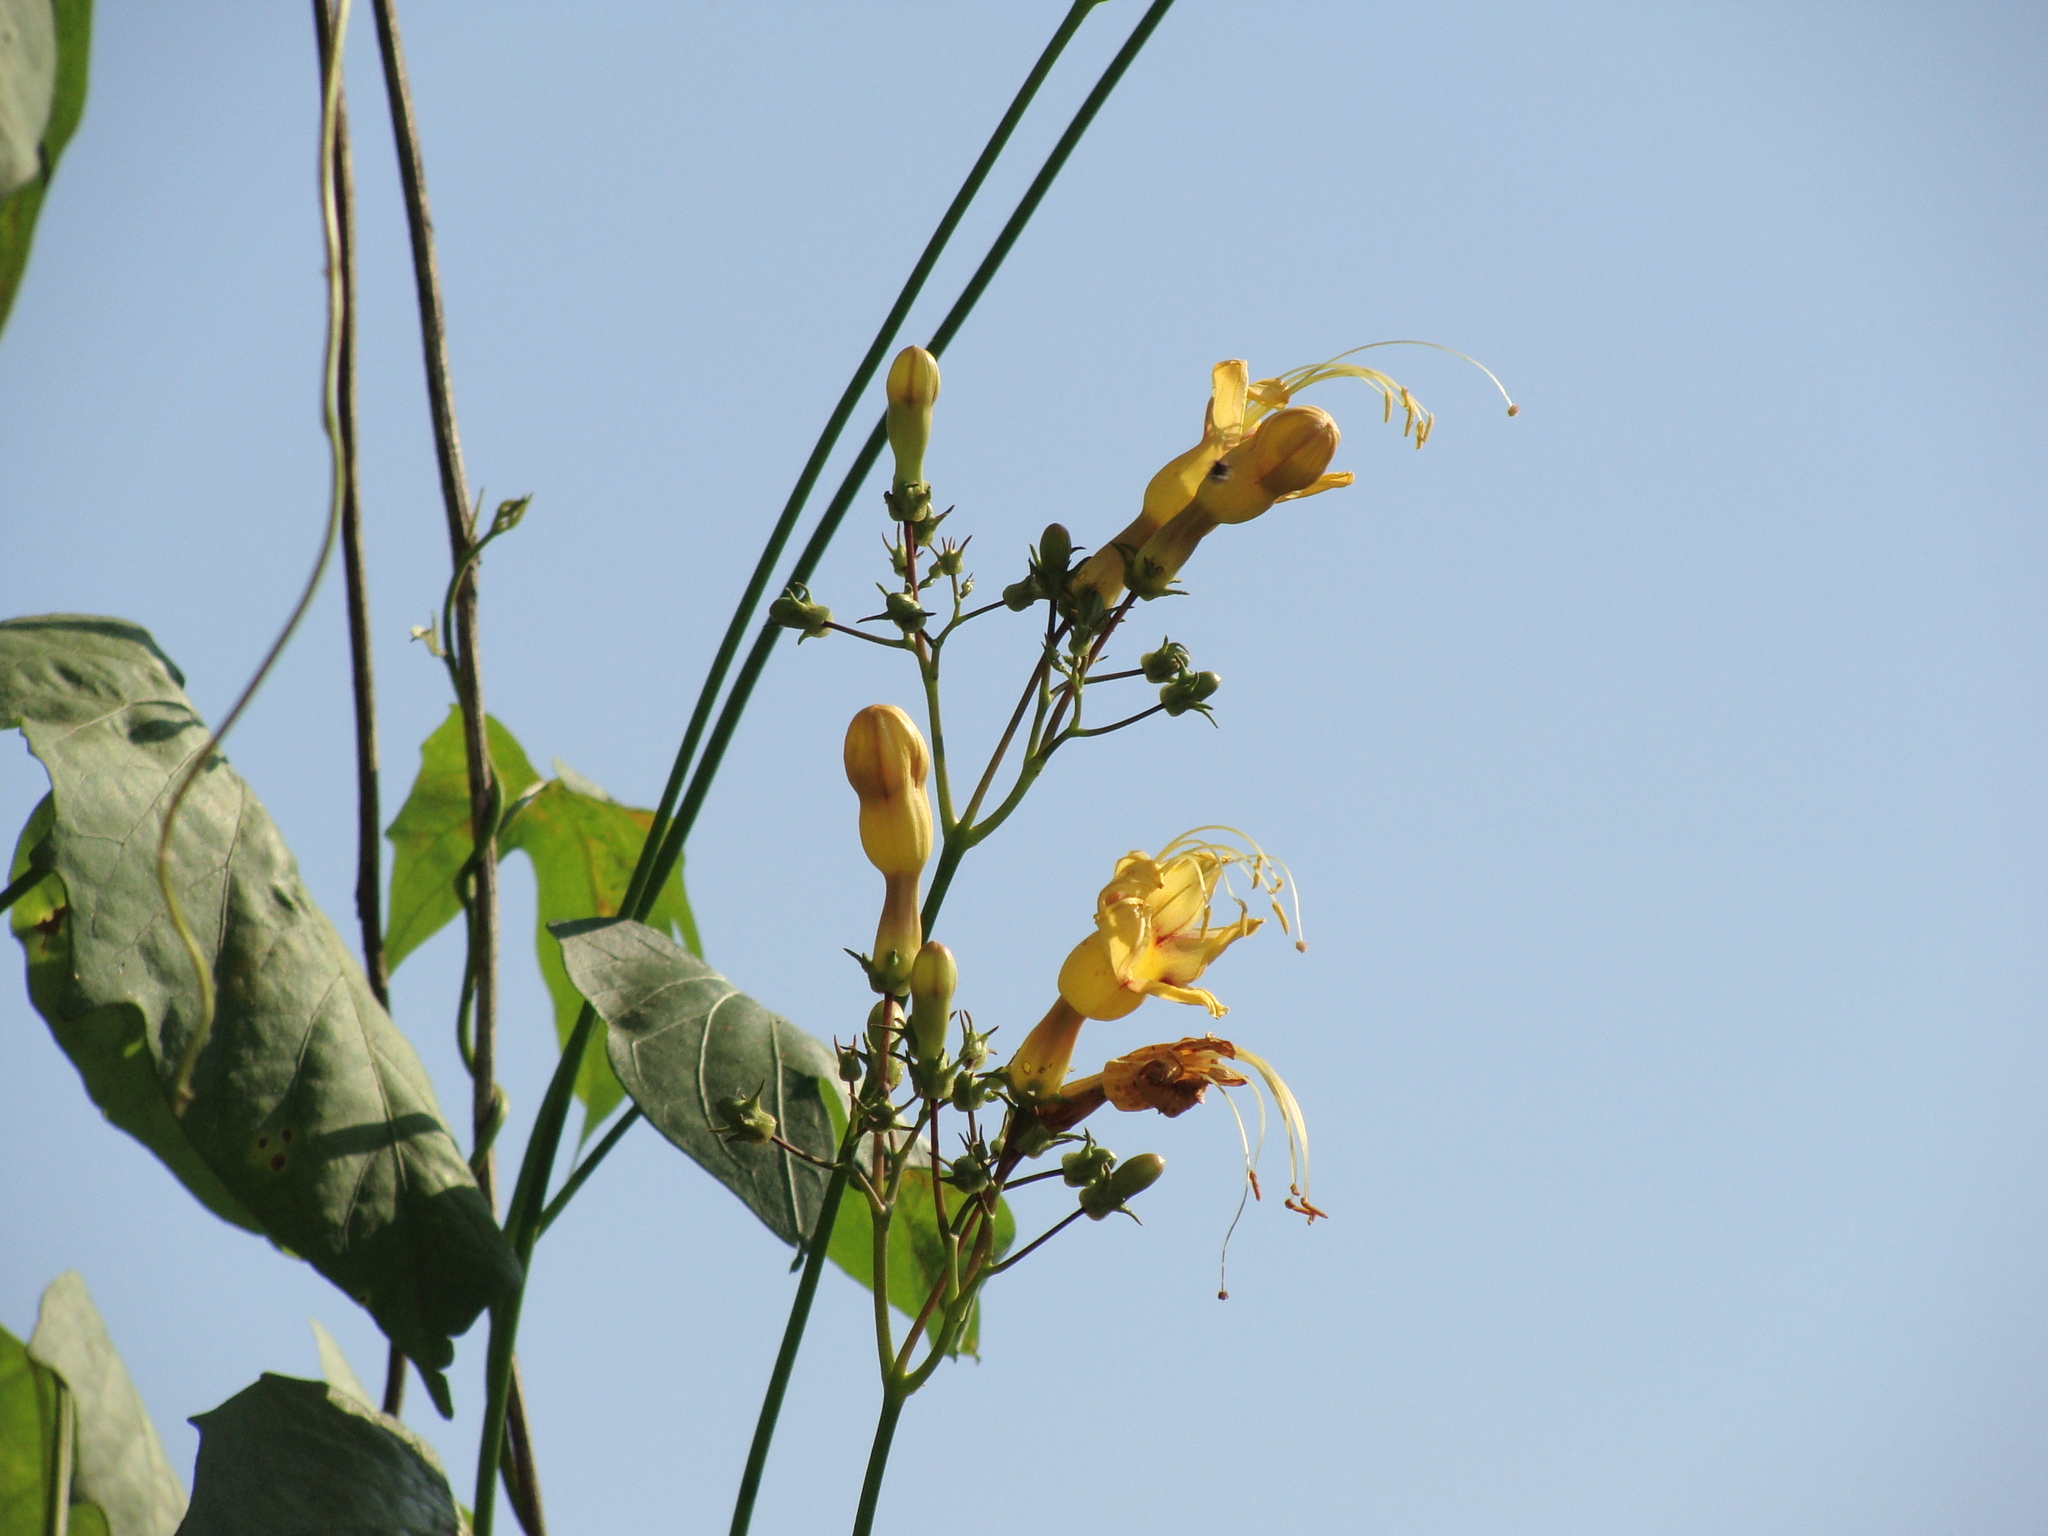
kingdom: Plantae
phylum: Tracheophyta
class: Magnoliopsida
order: Solanales
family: Convolvulaceae
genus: Ipomoea
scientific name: Ipomoea neei
